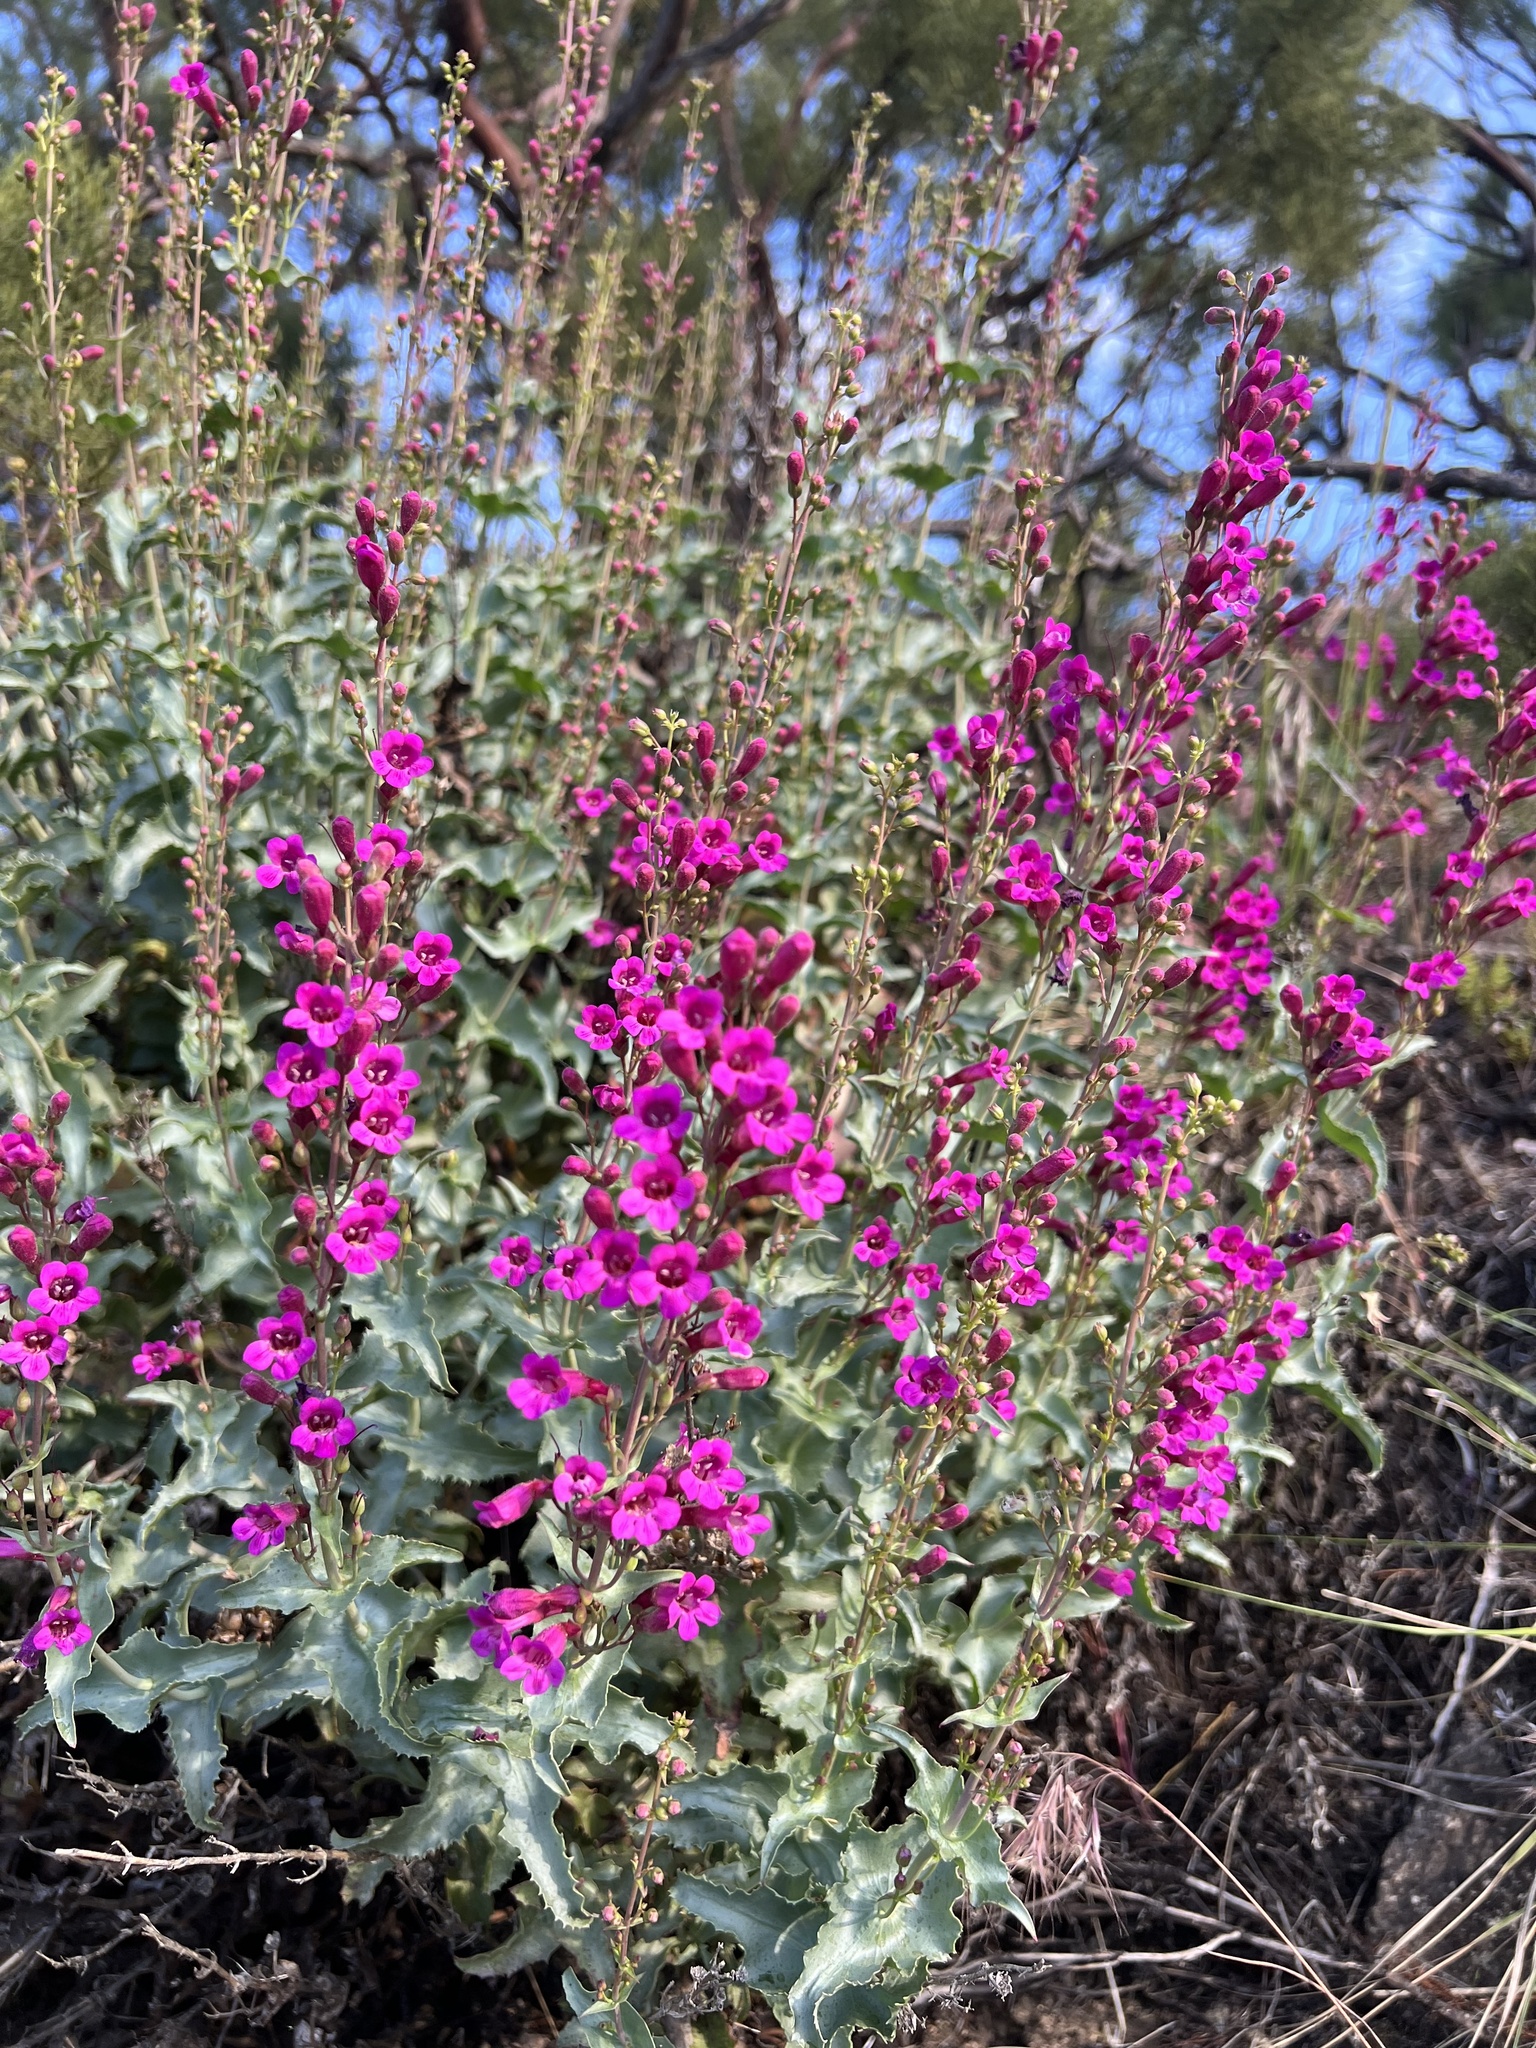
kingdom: Plantae
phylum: Tracheophyta
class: Magnoliopsida
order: Lamiales
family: Plantaginaceae
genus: Penstemon
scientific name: Penstemon clevelandii
